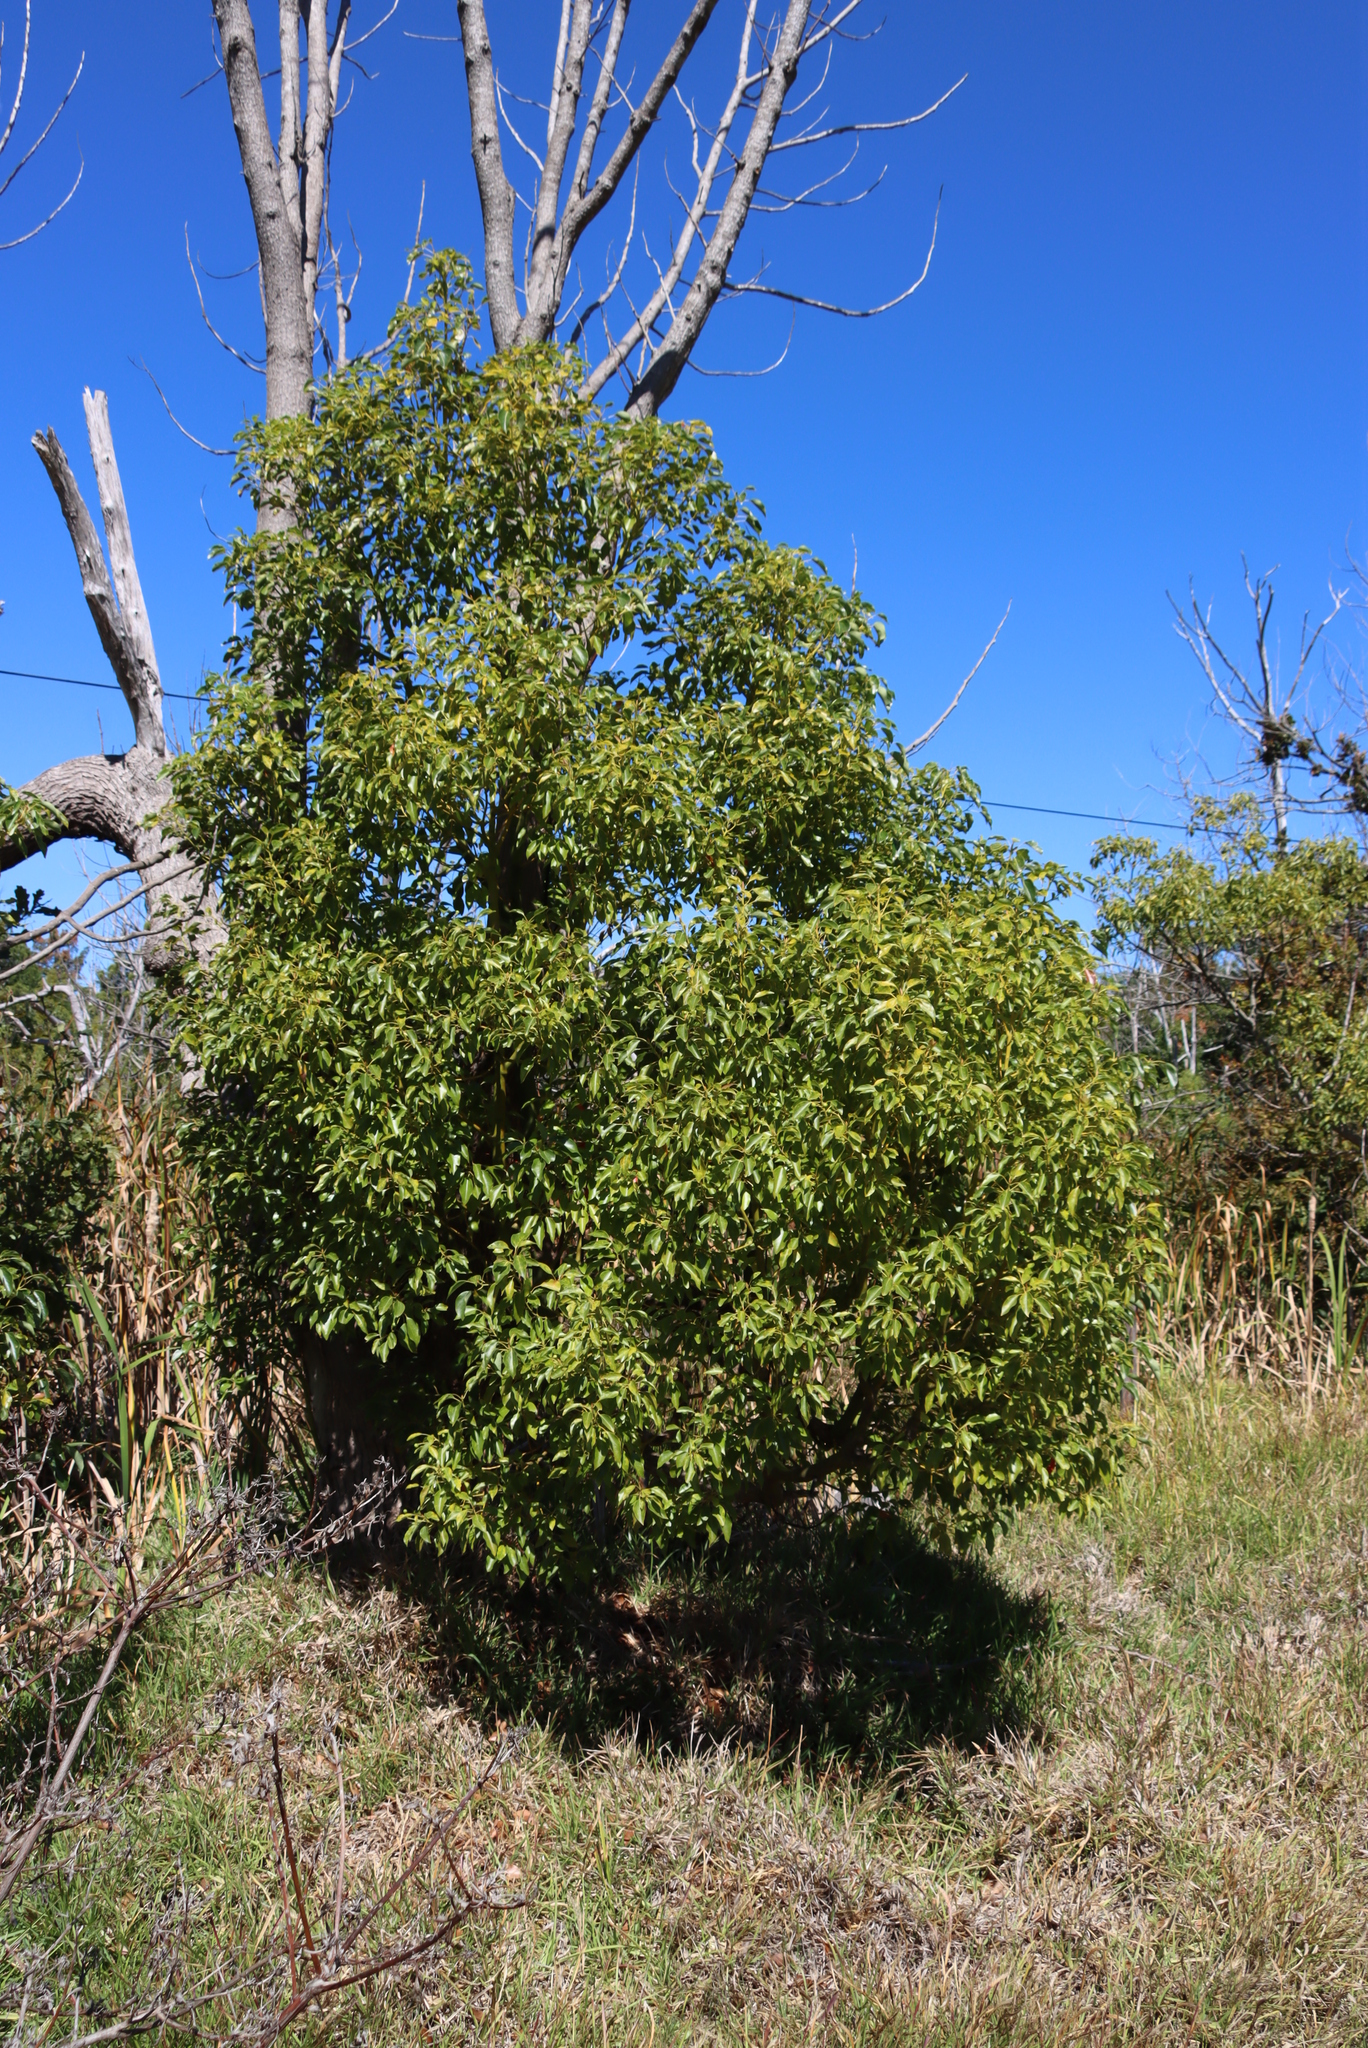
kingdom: Plantae
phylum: Tracheophyta
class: Magnoliopsida
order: Laurales
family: Lauraceae
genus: Cinnamomum
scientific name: Cinnamomum camphora
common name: Camphortree
